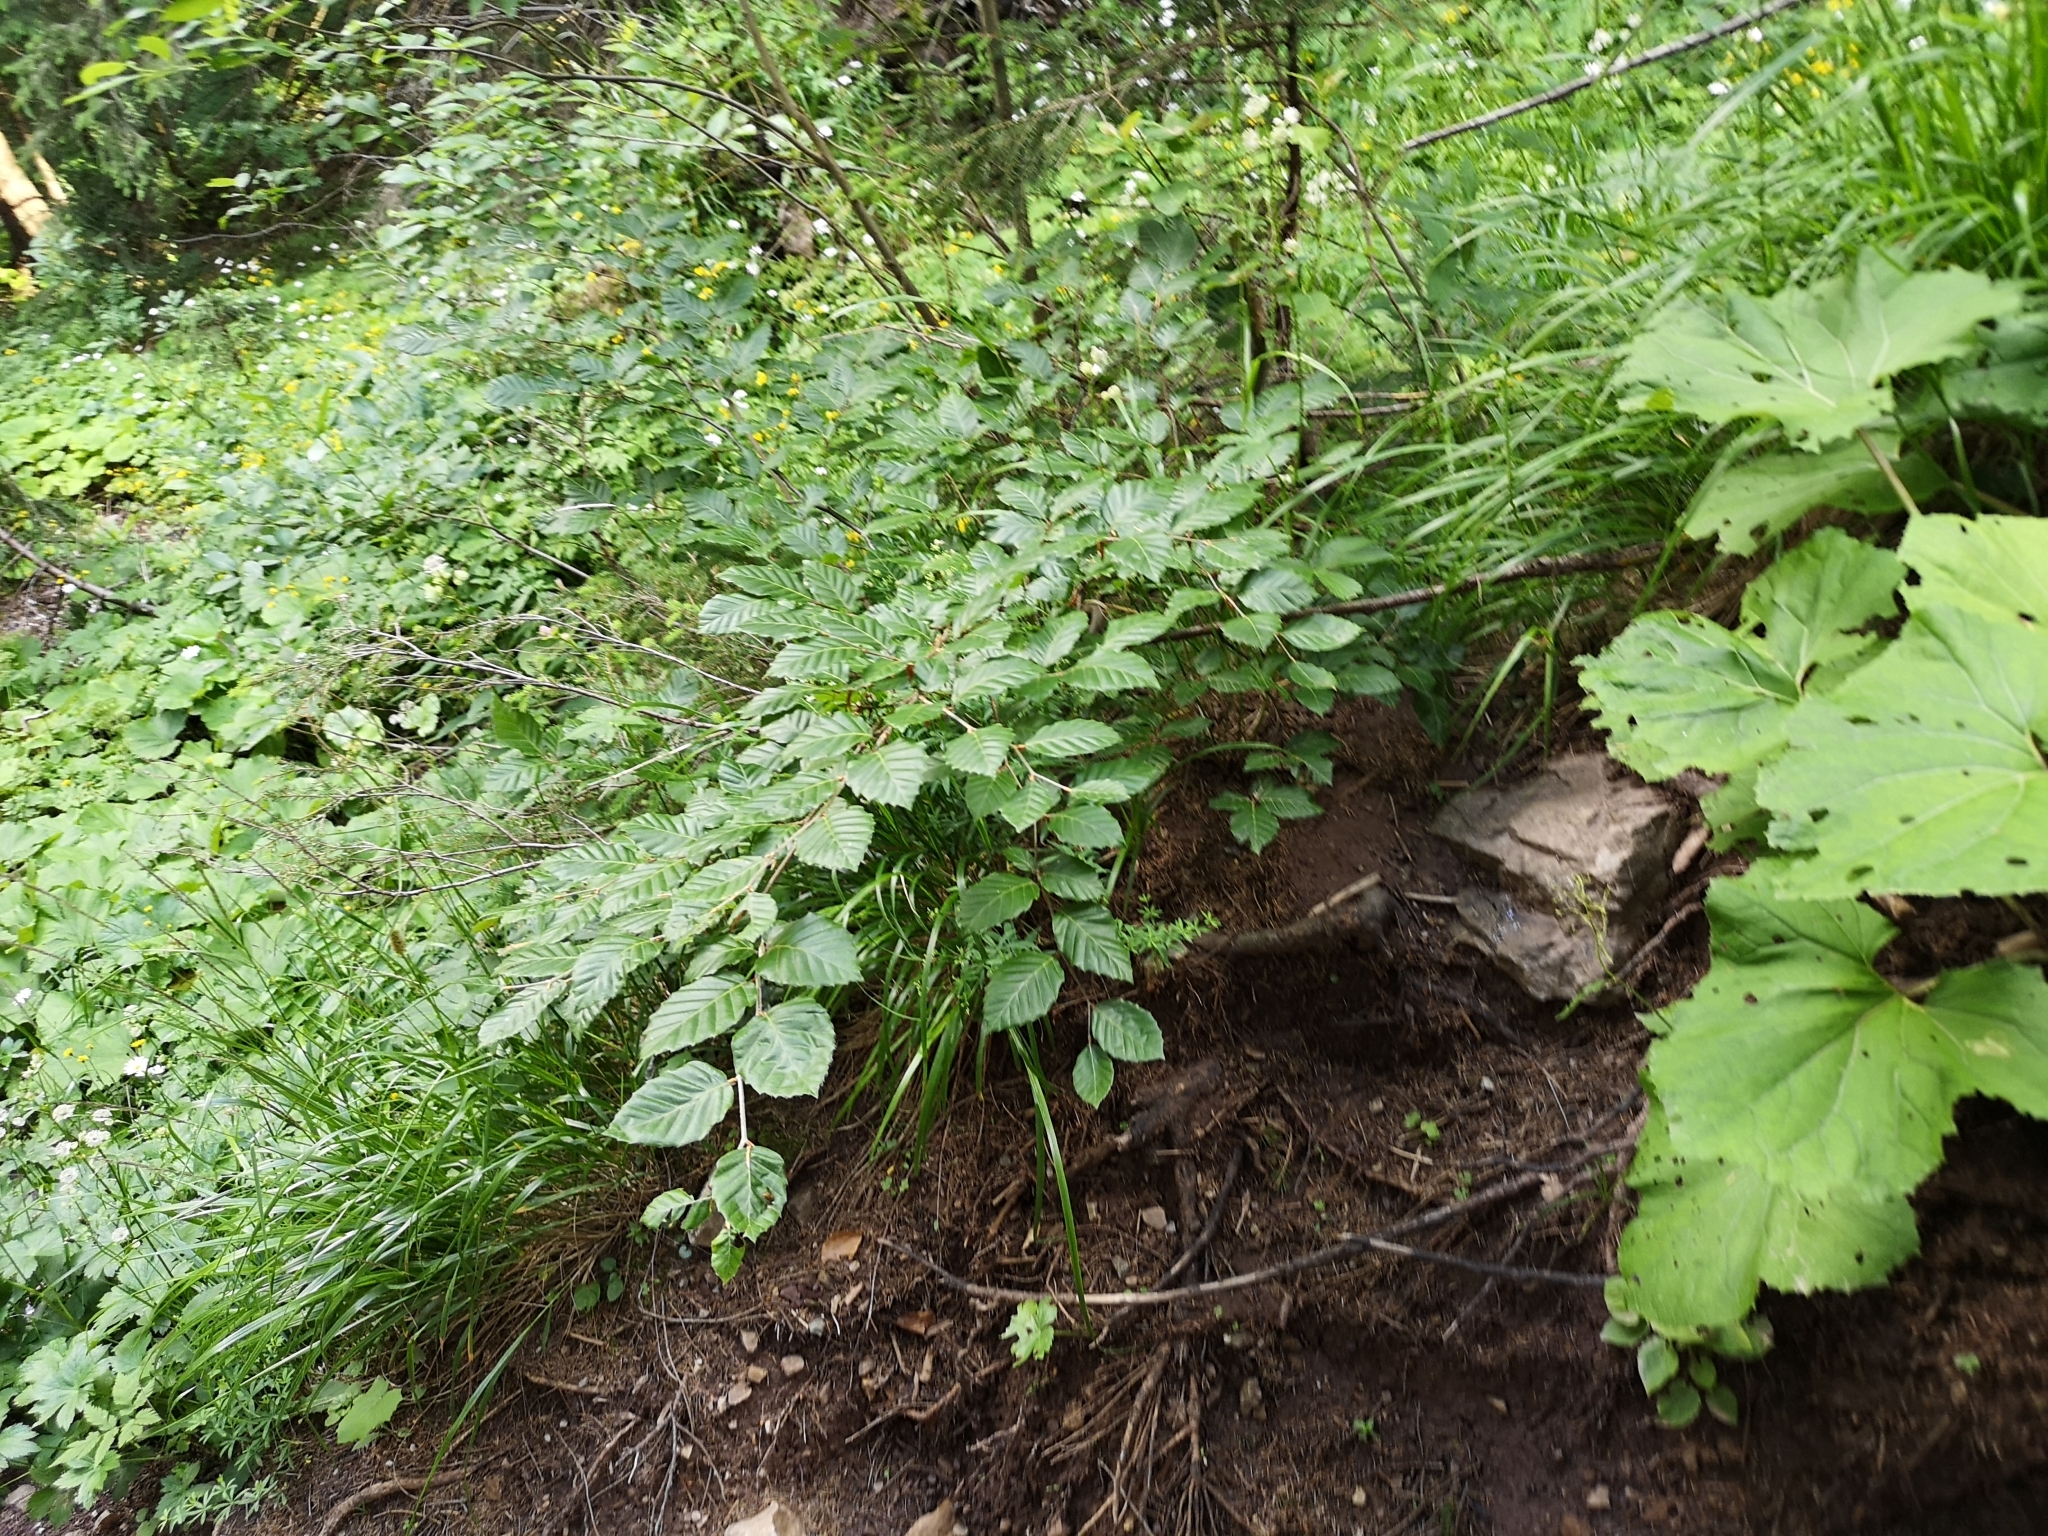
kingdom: Plantae
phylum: Tracheophyta
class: Magnoliopsida
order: Fagales
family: Fagaceae
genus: Fagus
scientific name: Fagus sylvatica
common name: Beech
